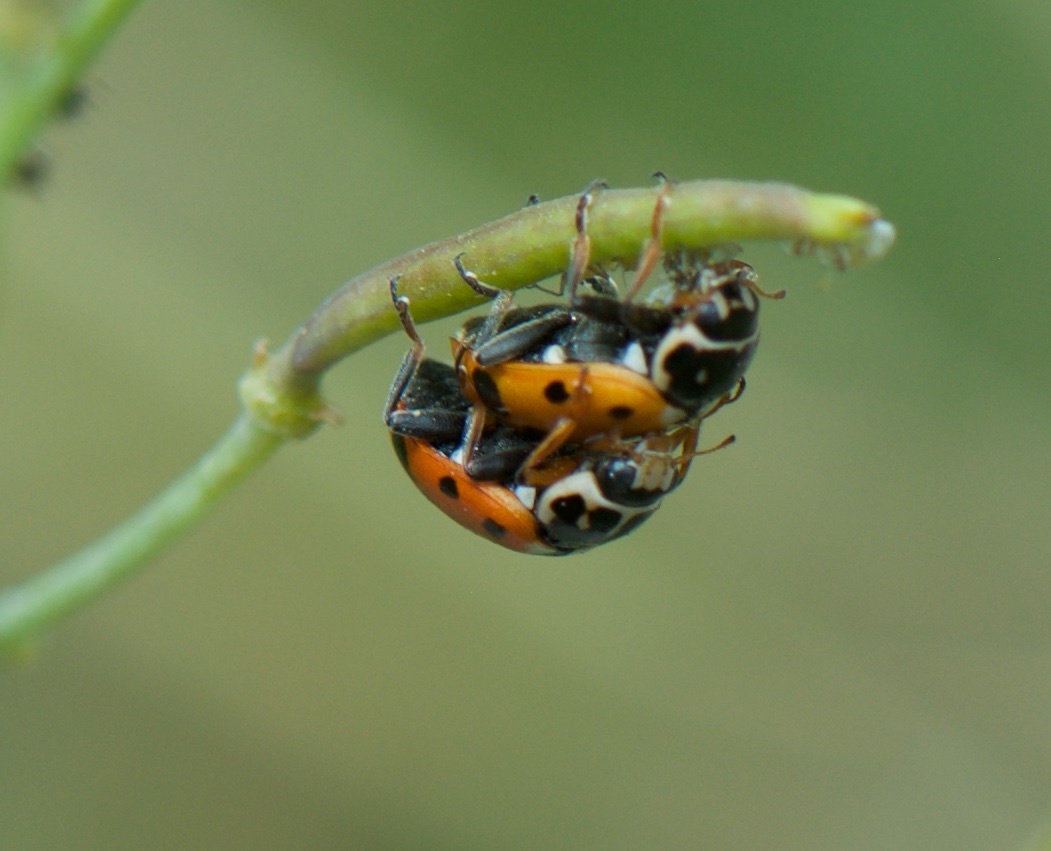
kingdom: Animalia
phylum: Arthropoda
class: Insecta
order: Coleoptera
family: Coccinellidae
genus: Hippodamia
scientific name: Hippodamia variegata
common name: Ladybird beetle
